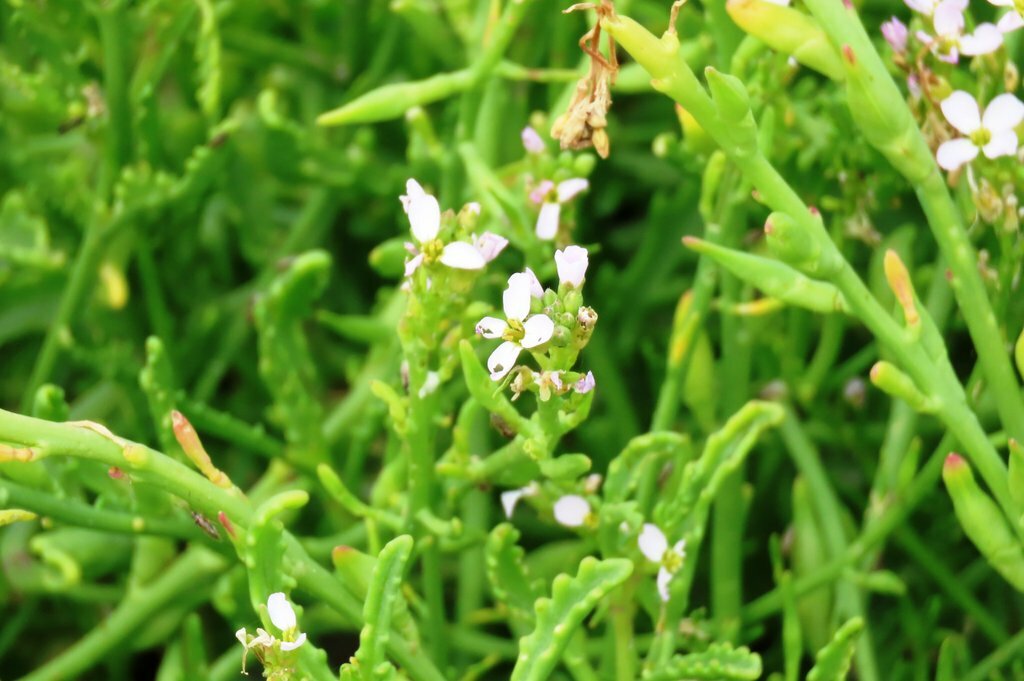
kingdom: Plantae
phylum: Tracheophyta
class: Magnoliopsida
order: Brassicales
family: Brassicaceae
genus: Cakile
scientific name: Cakile maritima
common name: Sea rocket
